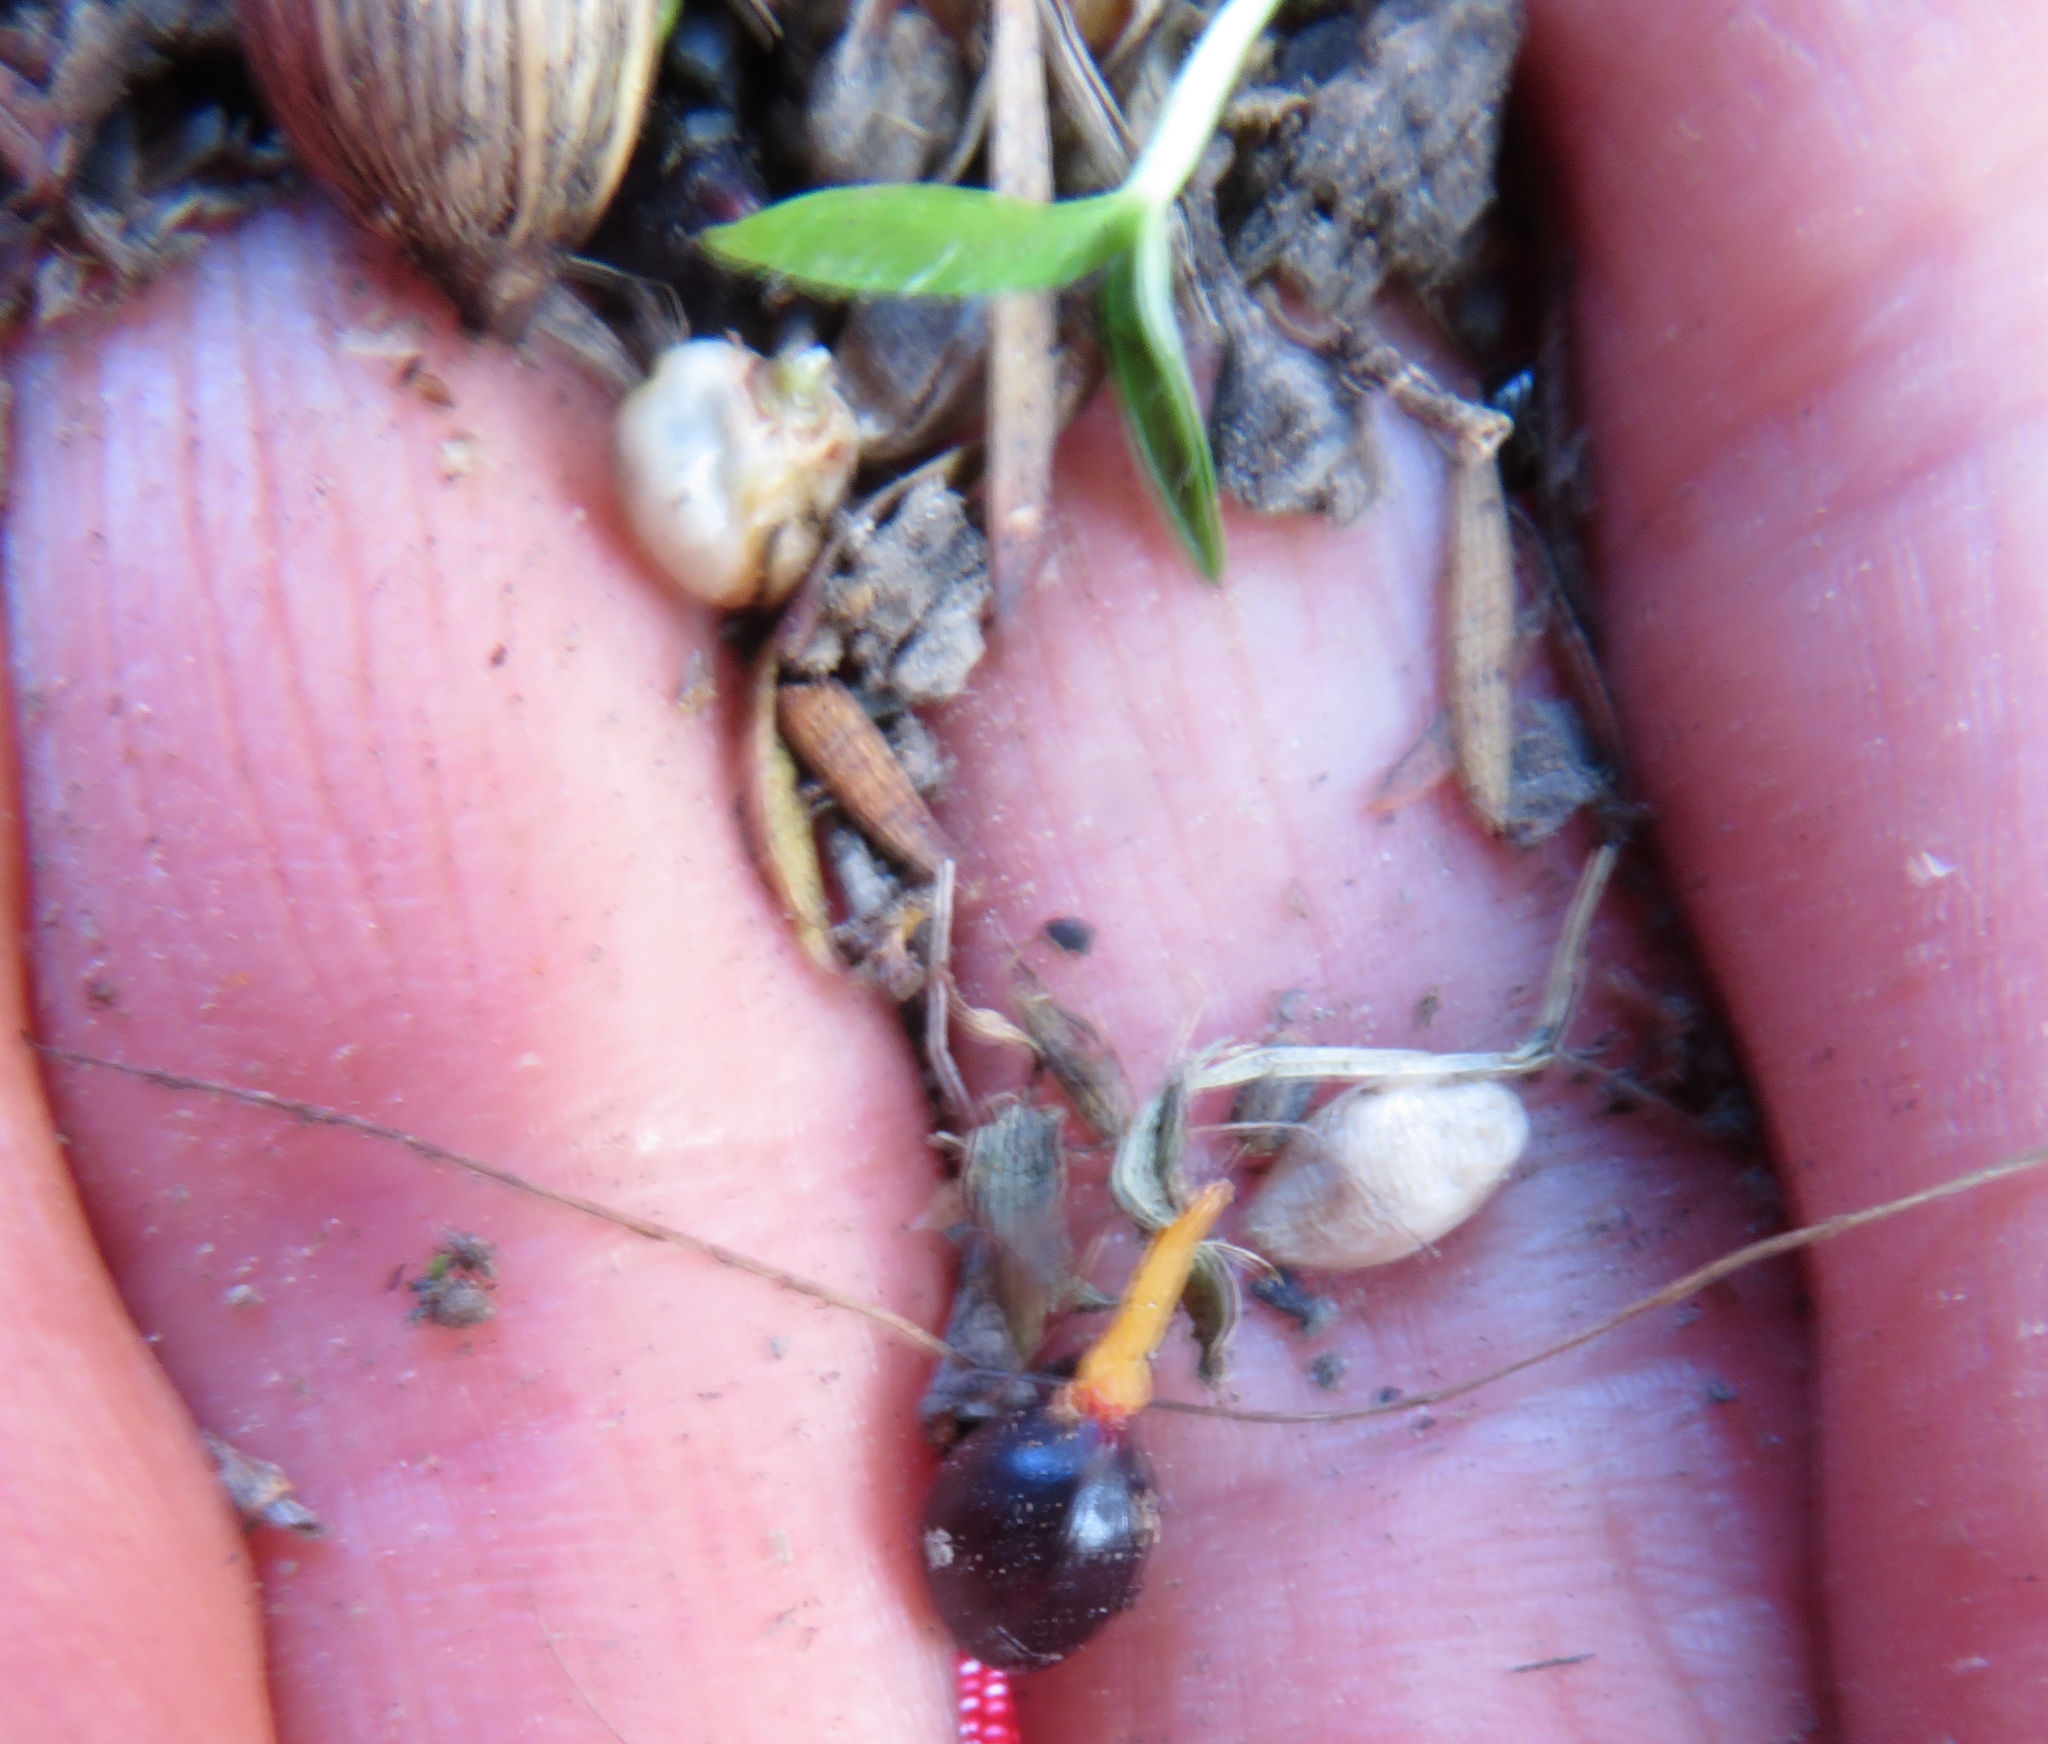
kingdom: Plantae
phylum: Tracheophyta
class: Pinopsida
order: Pinales
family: Podocarpaceae
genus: Dacrycarpus
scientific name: Dacrycarpus dacrydioides
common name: White pine
